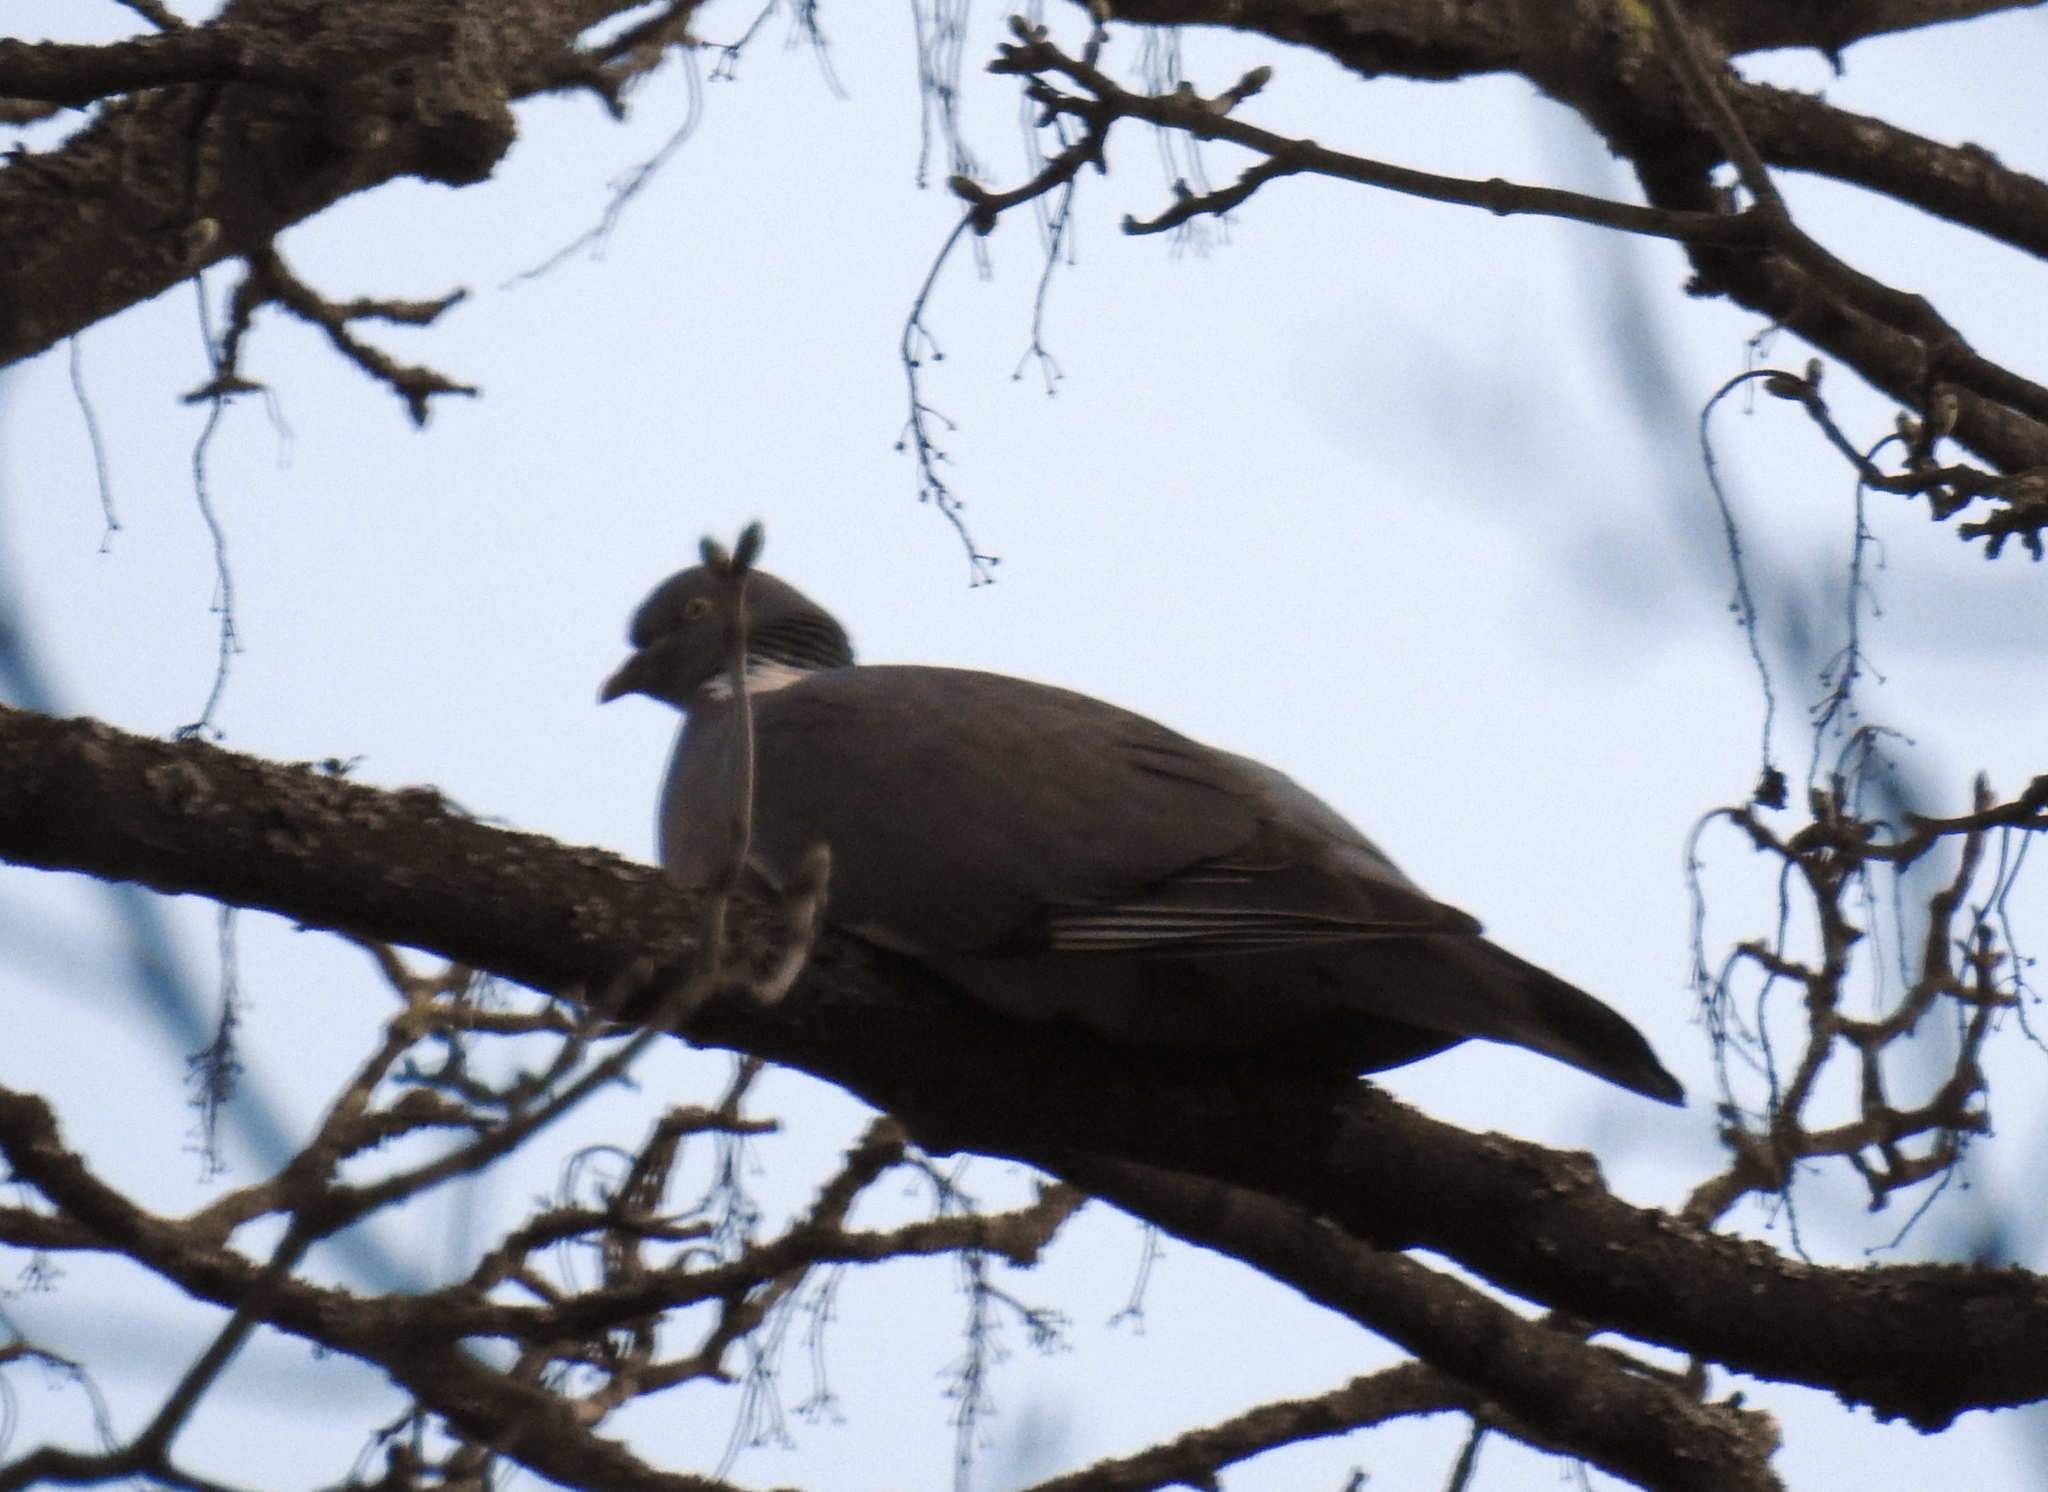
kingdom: Animalia
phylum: Chordata
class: Aves
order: Columbiformes
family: Columbidae
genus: Columba
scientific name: Columba palumbus
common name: Common wood pigeon
